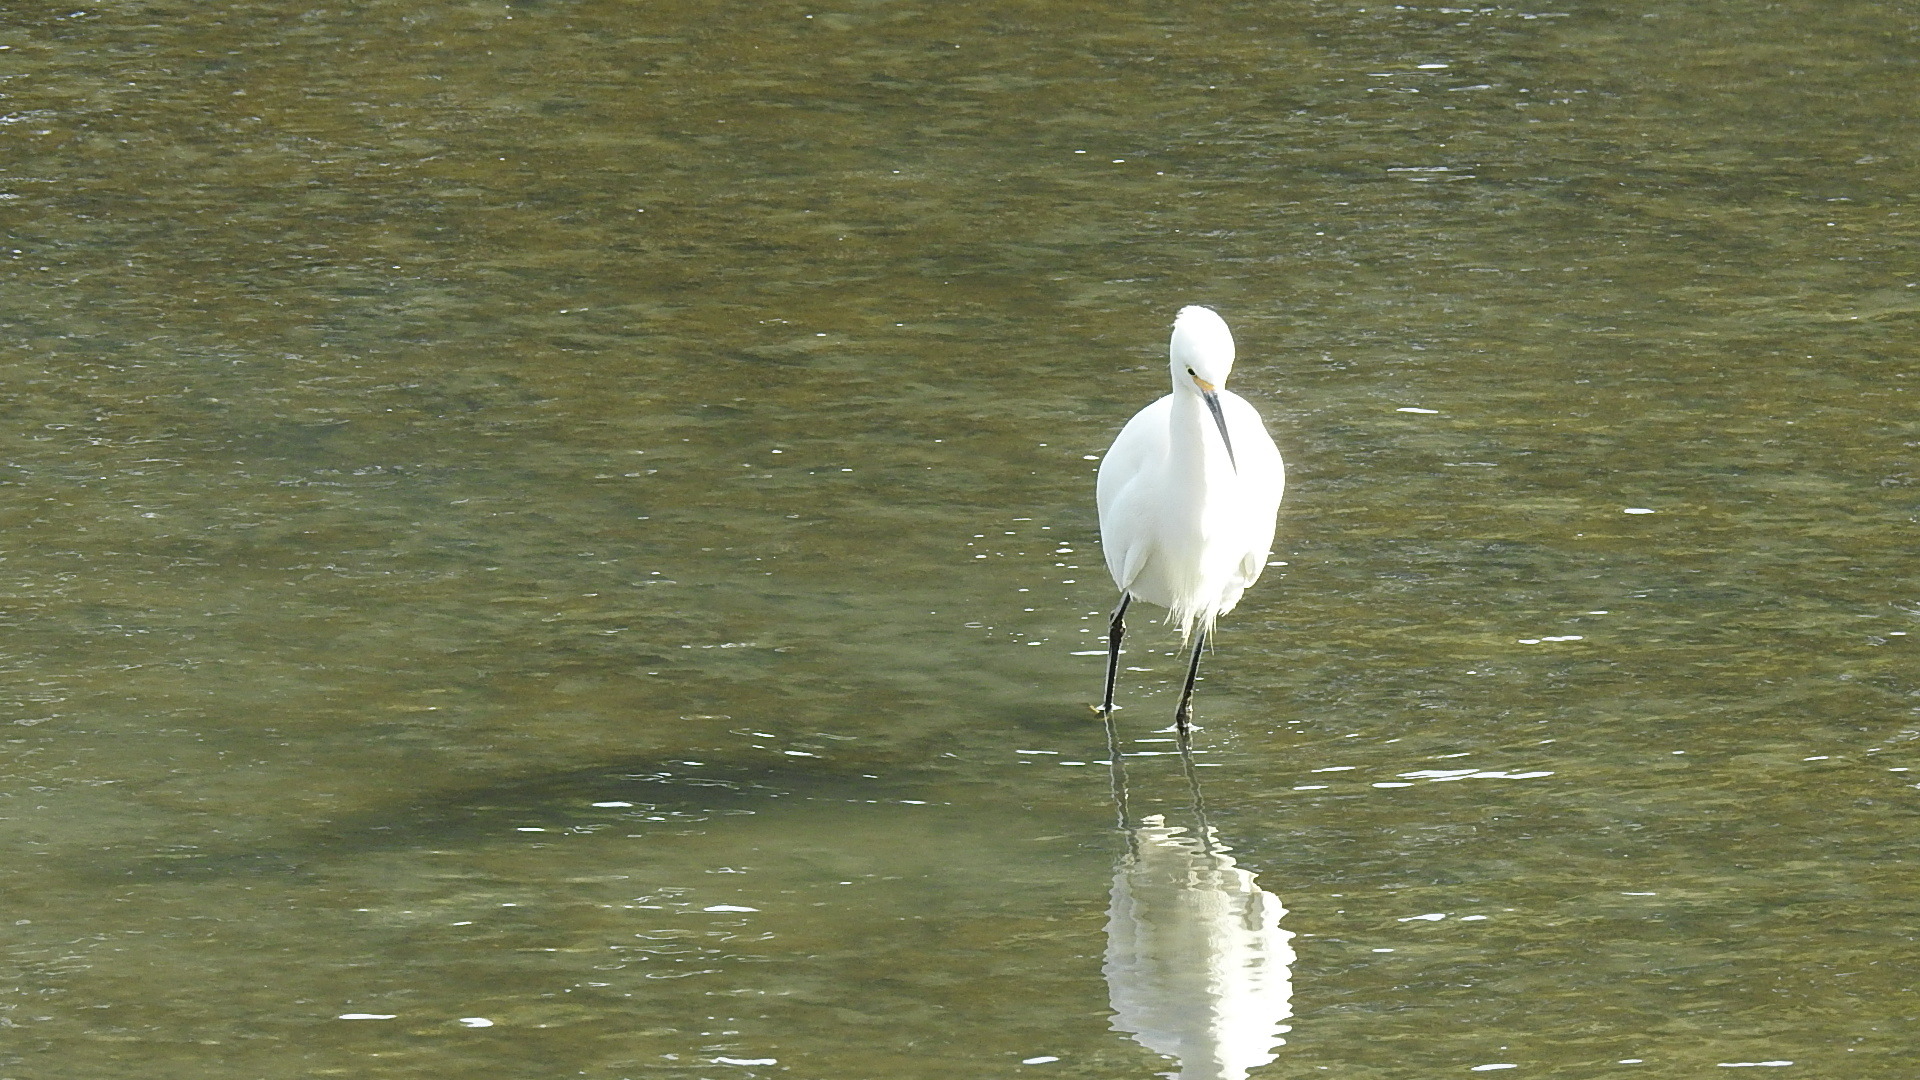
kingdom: Animalia
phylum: Chordata
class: Aves
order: Pelecaniformes
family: Ardeidae
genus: Egretta
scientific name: Egretta thula
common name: Snowy egret
